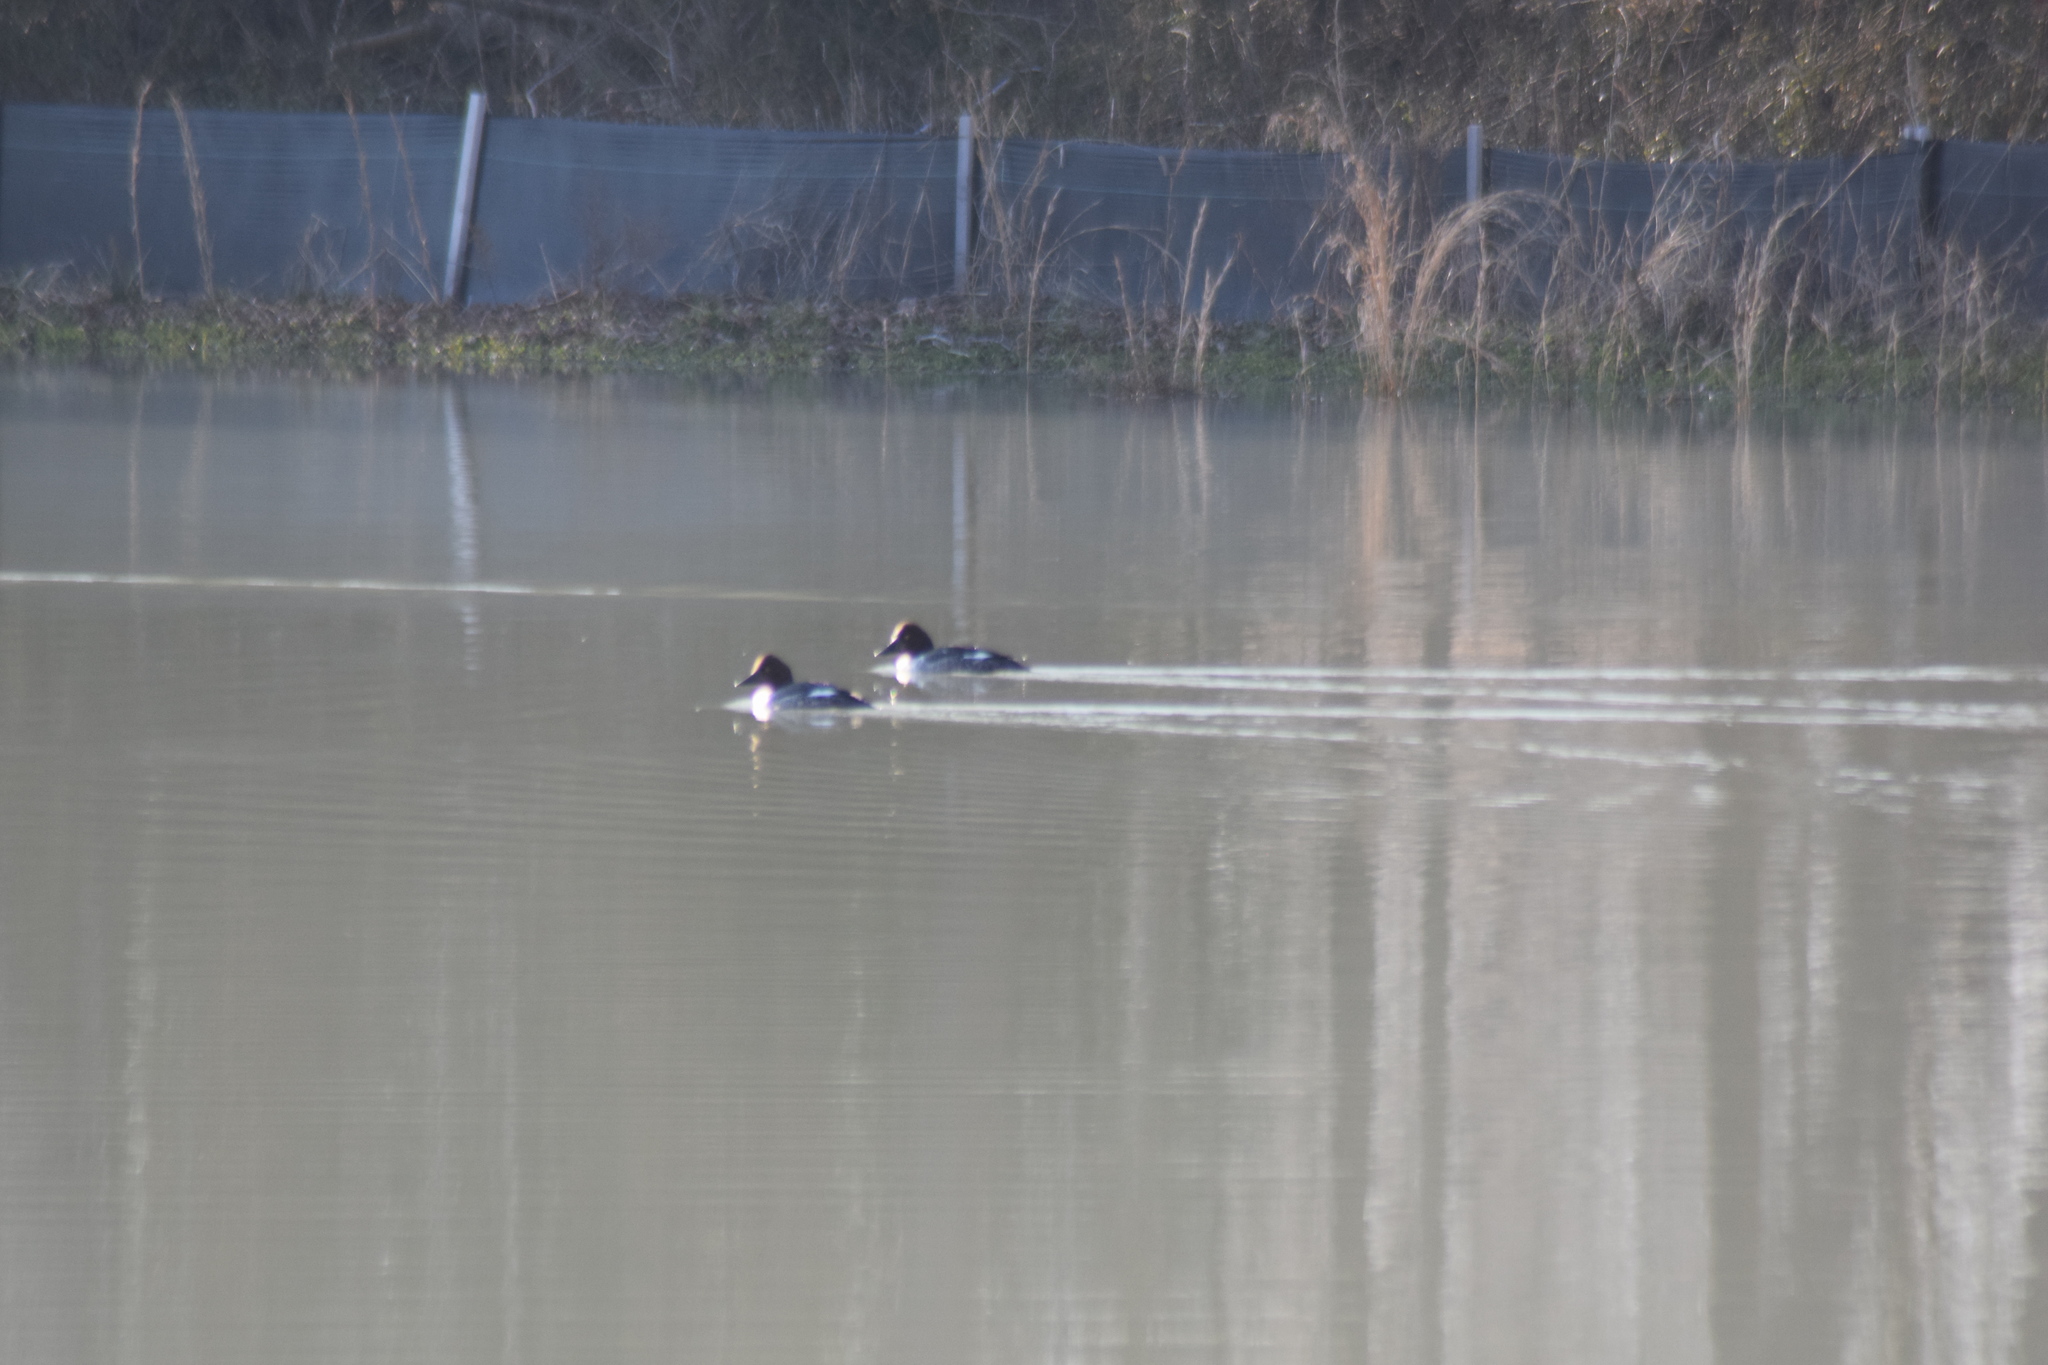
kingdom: Animalia
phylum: Chordata
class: Aves
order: Anseriformes
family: Anatidae
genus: Bucephala
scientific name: Bucephala clangula
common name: Common goldeneye
